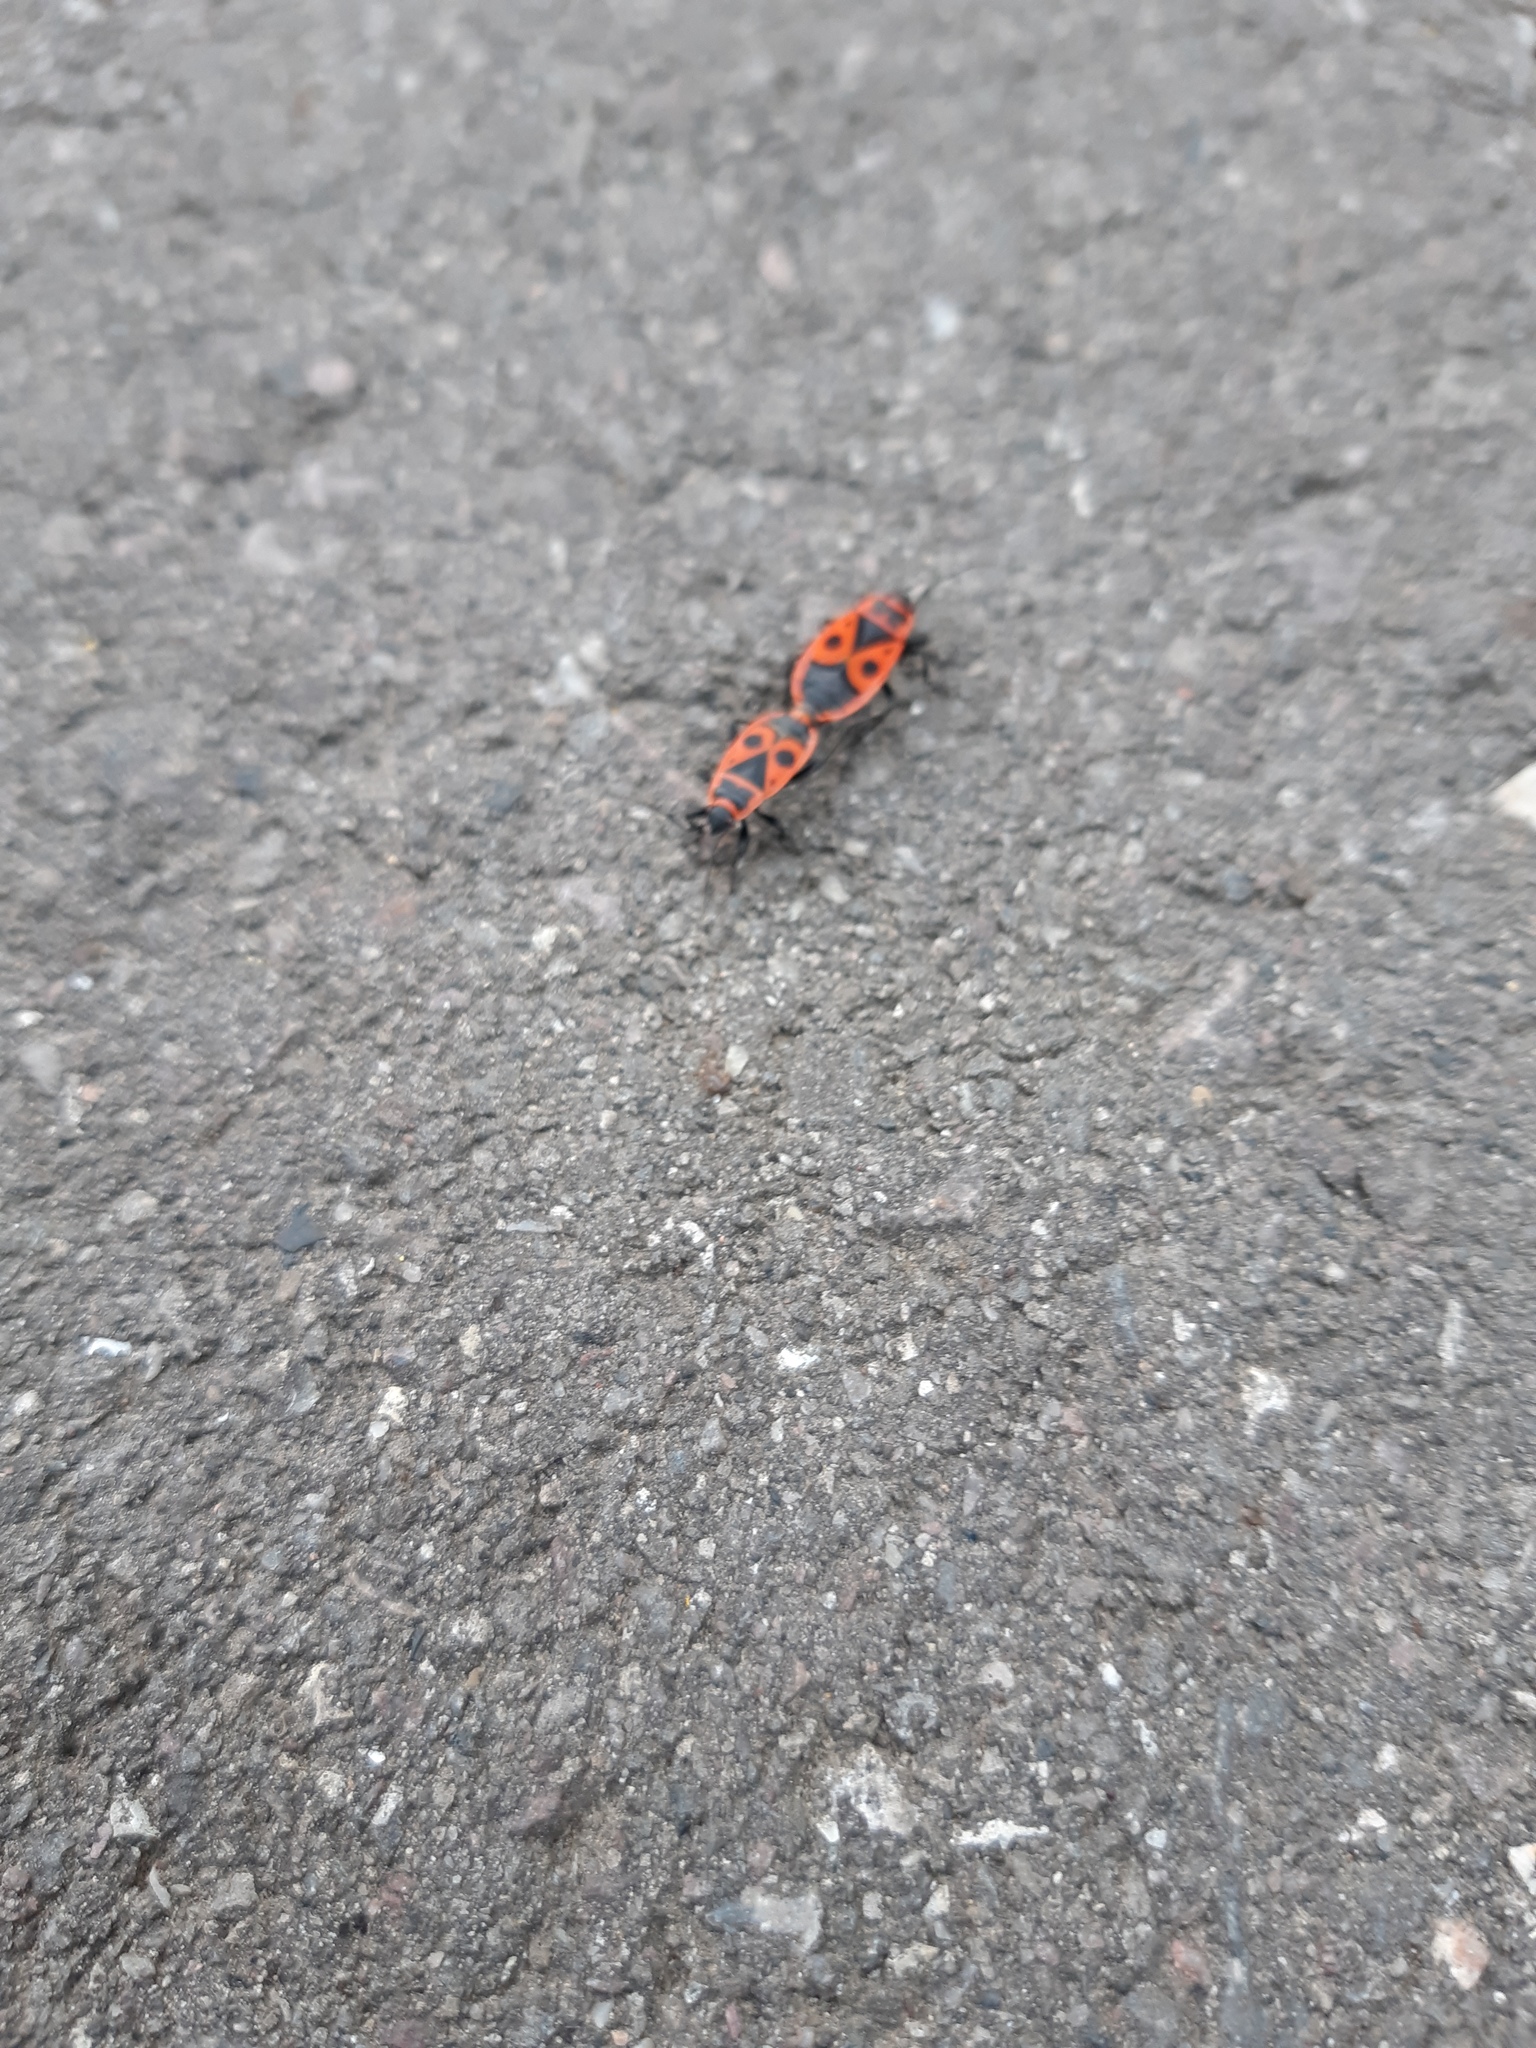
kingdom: Animalia
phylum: Arthropoda
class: Insecta
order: Hemiptera
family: Pyrrhocoridae
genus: Pyrrhocoris
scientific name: Pyrrhocoris apterus
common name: Firebug
